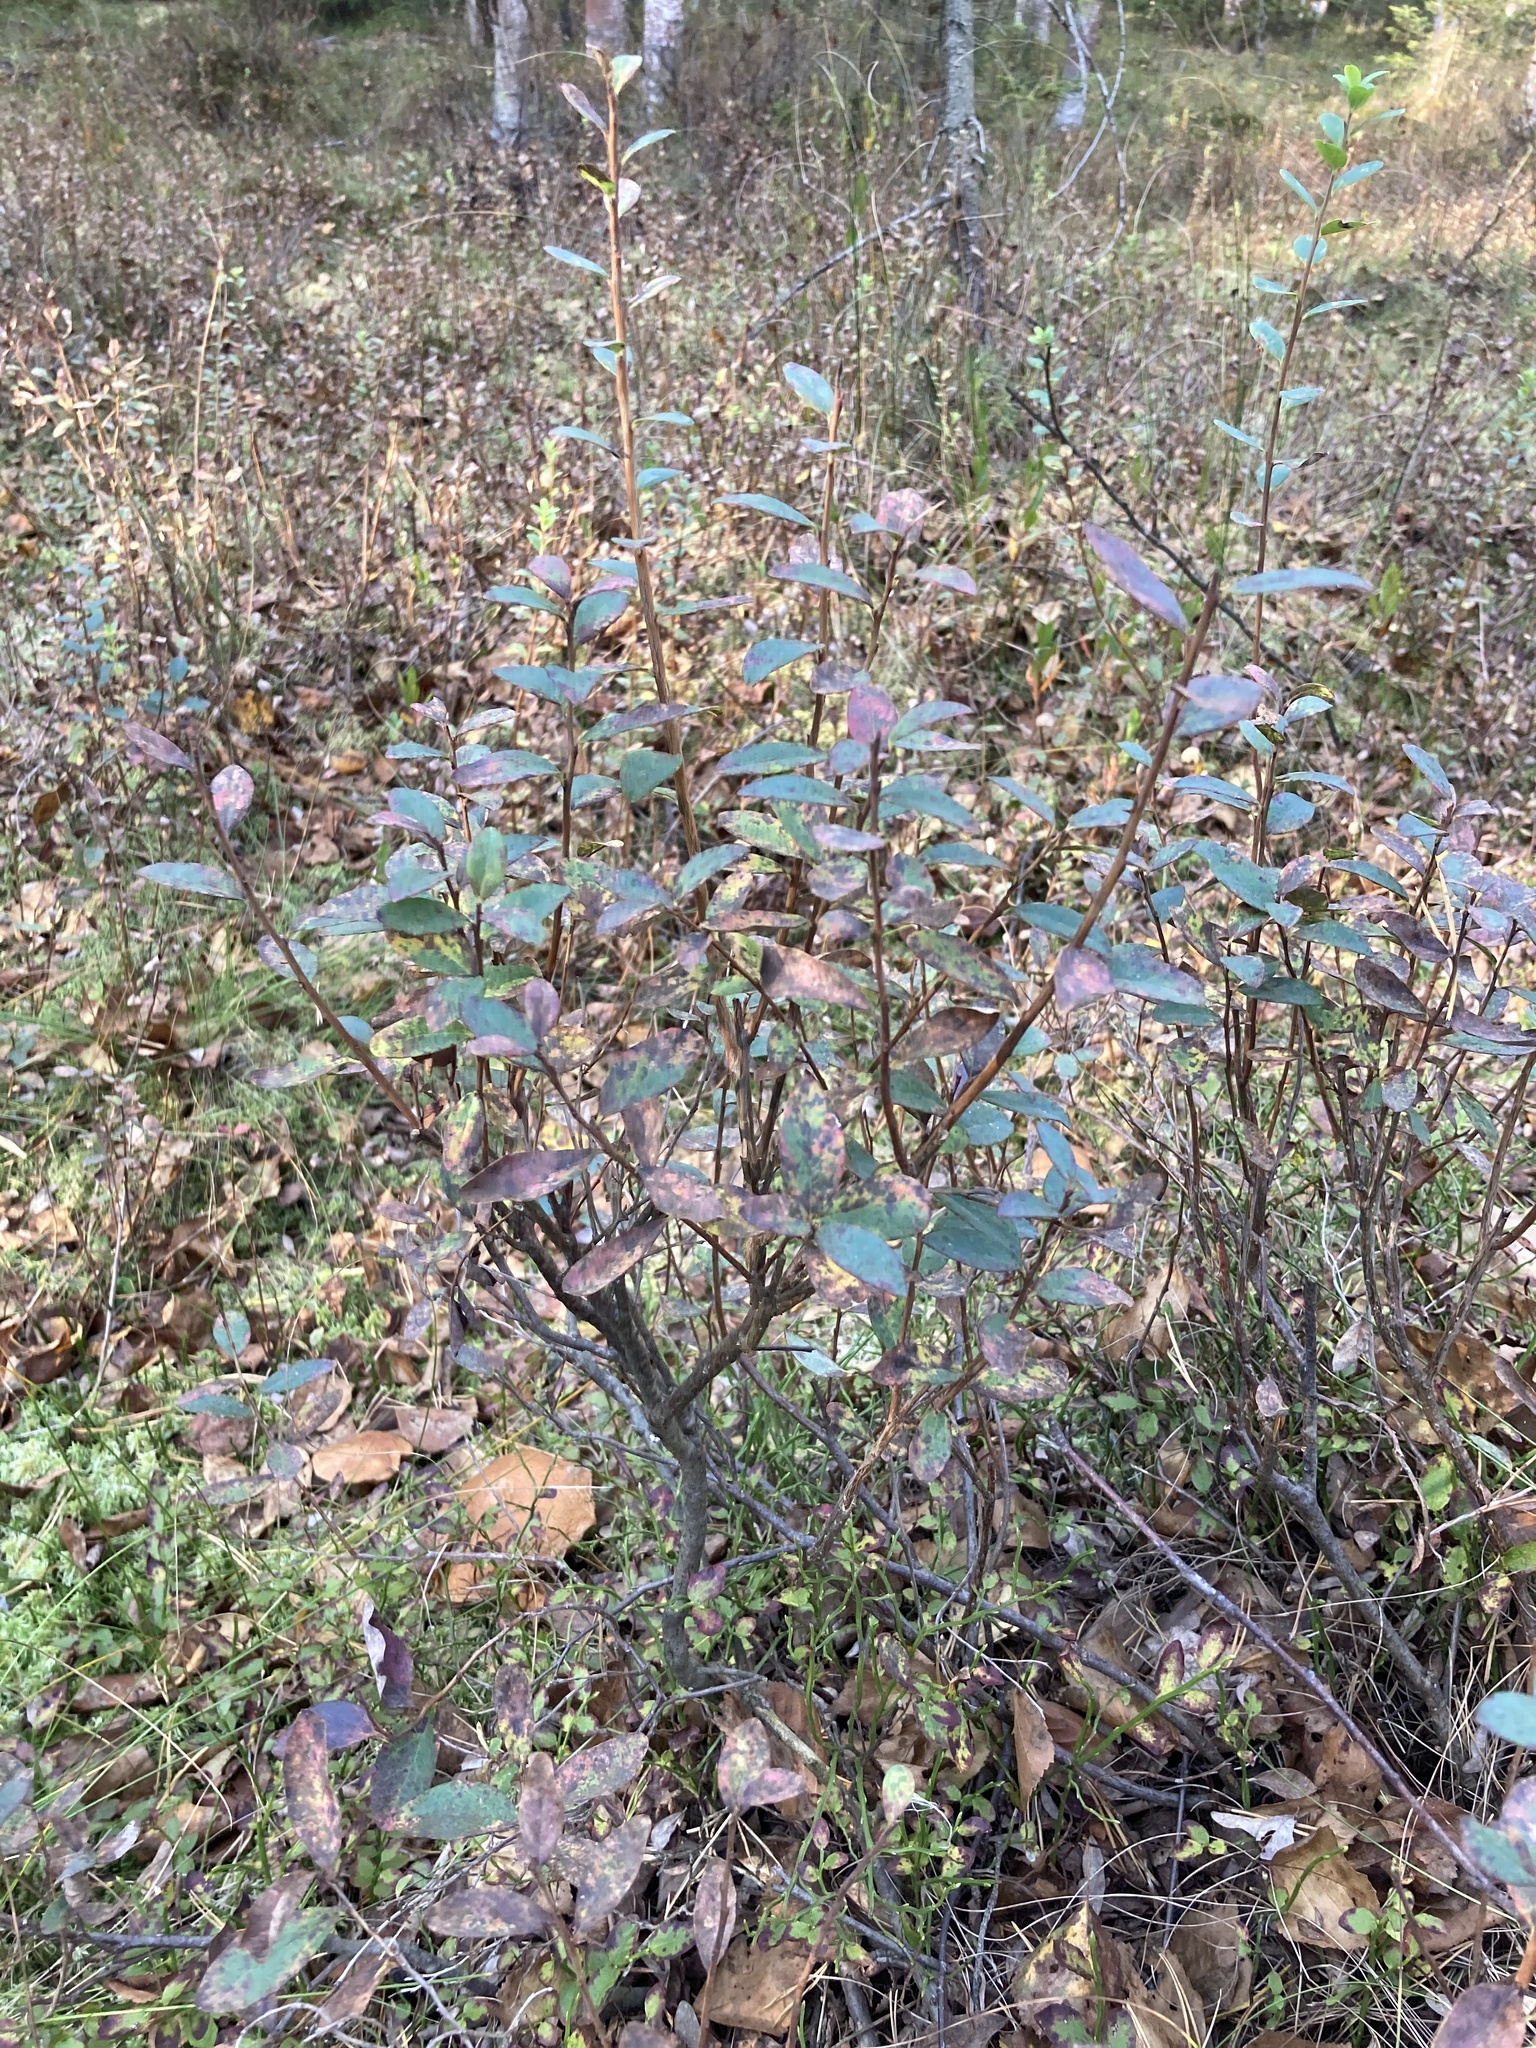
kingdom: Plantae
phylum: Tracheophyta
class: Magnoliopsida
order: Ericales
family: Ericaceae
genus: Vaccinium
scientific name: Vaccinium uliginosum
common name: Bog bilberry
